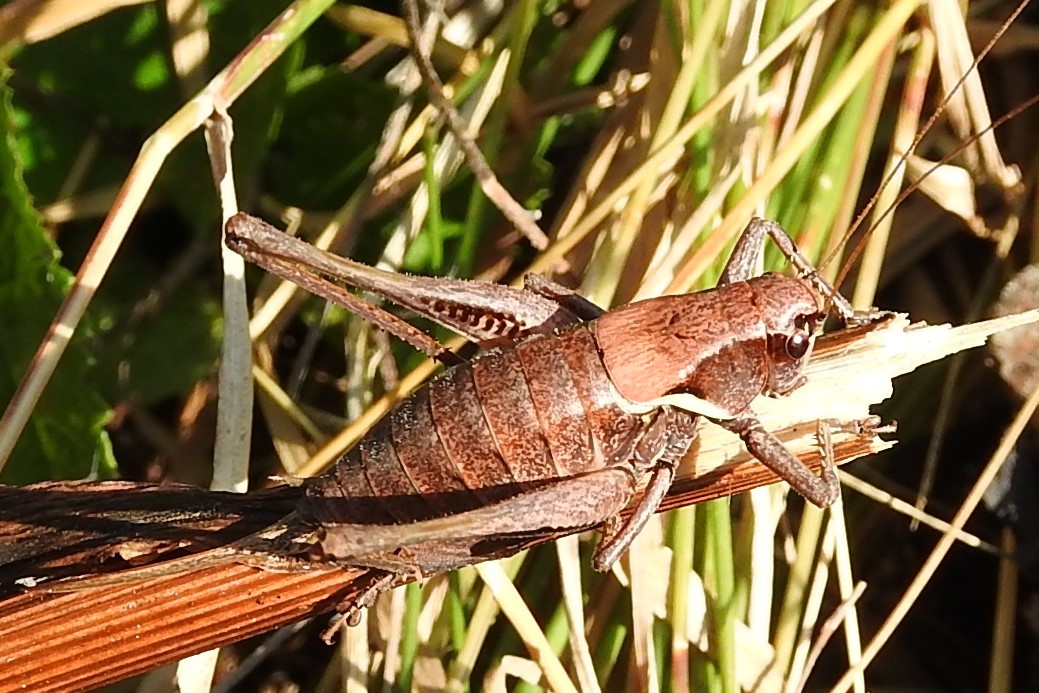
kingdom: Animalia
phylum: Arthropoda
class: Insecta
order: Orthoptera
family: Tettigoniidae
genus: Pholidoptera
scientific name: Pholidoptera aptera
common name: Alpine dark bush-cricket
